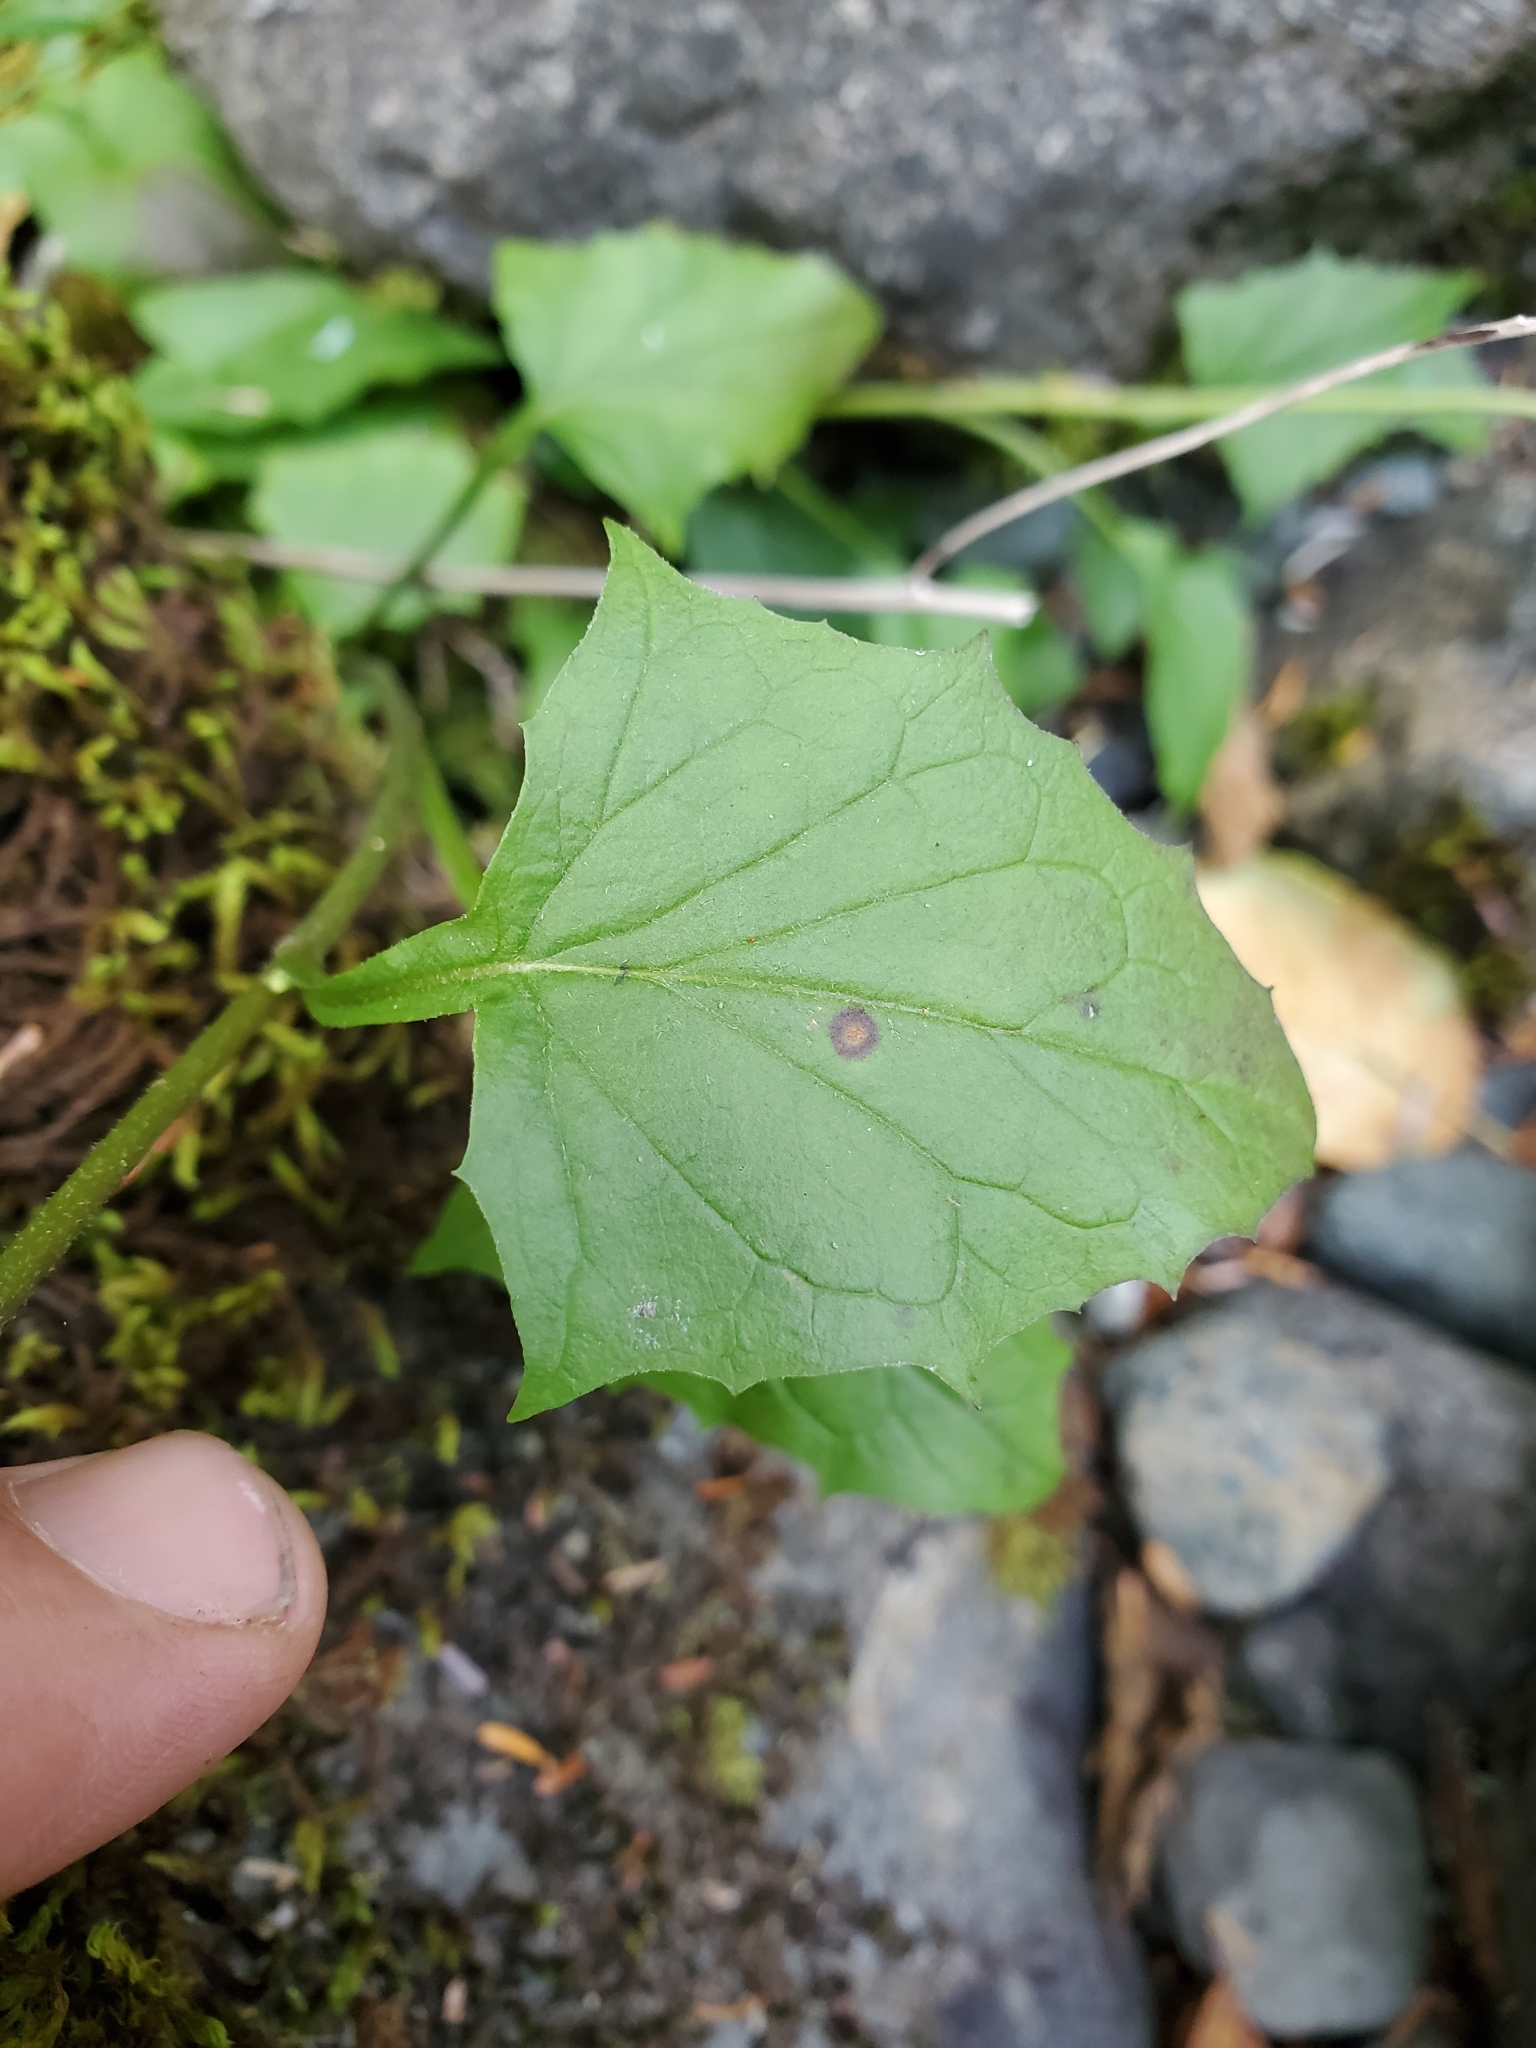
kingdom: Plantae
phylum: Tracheophyta
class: Magnoliopsida
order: Asterales
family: Asteraceae
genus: Nabalus
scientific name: Nabalus hastatus
